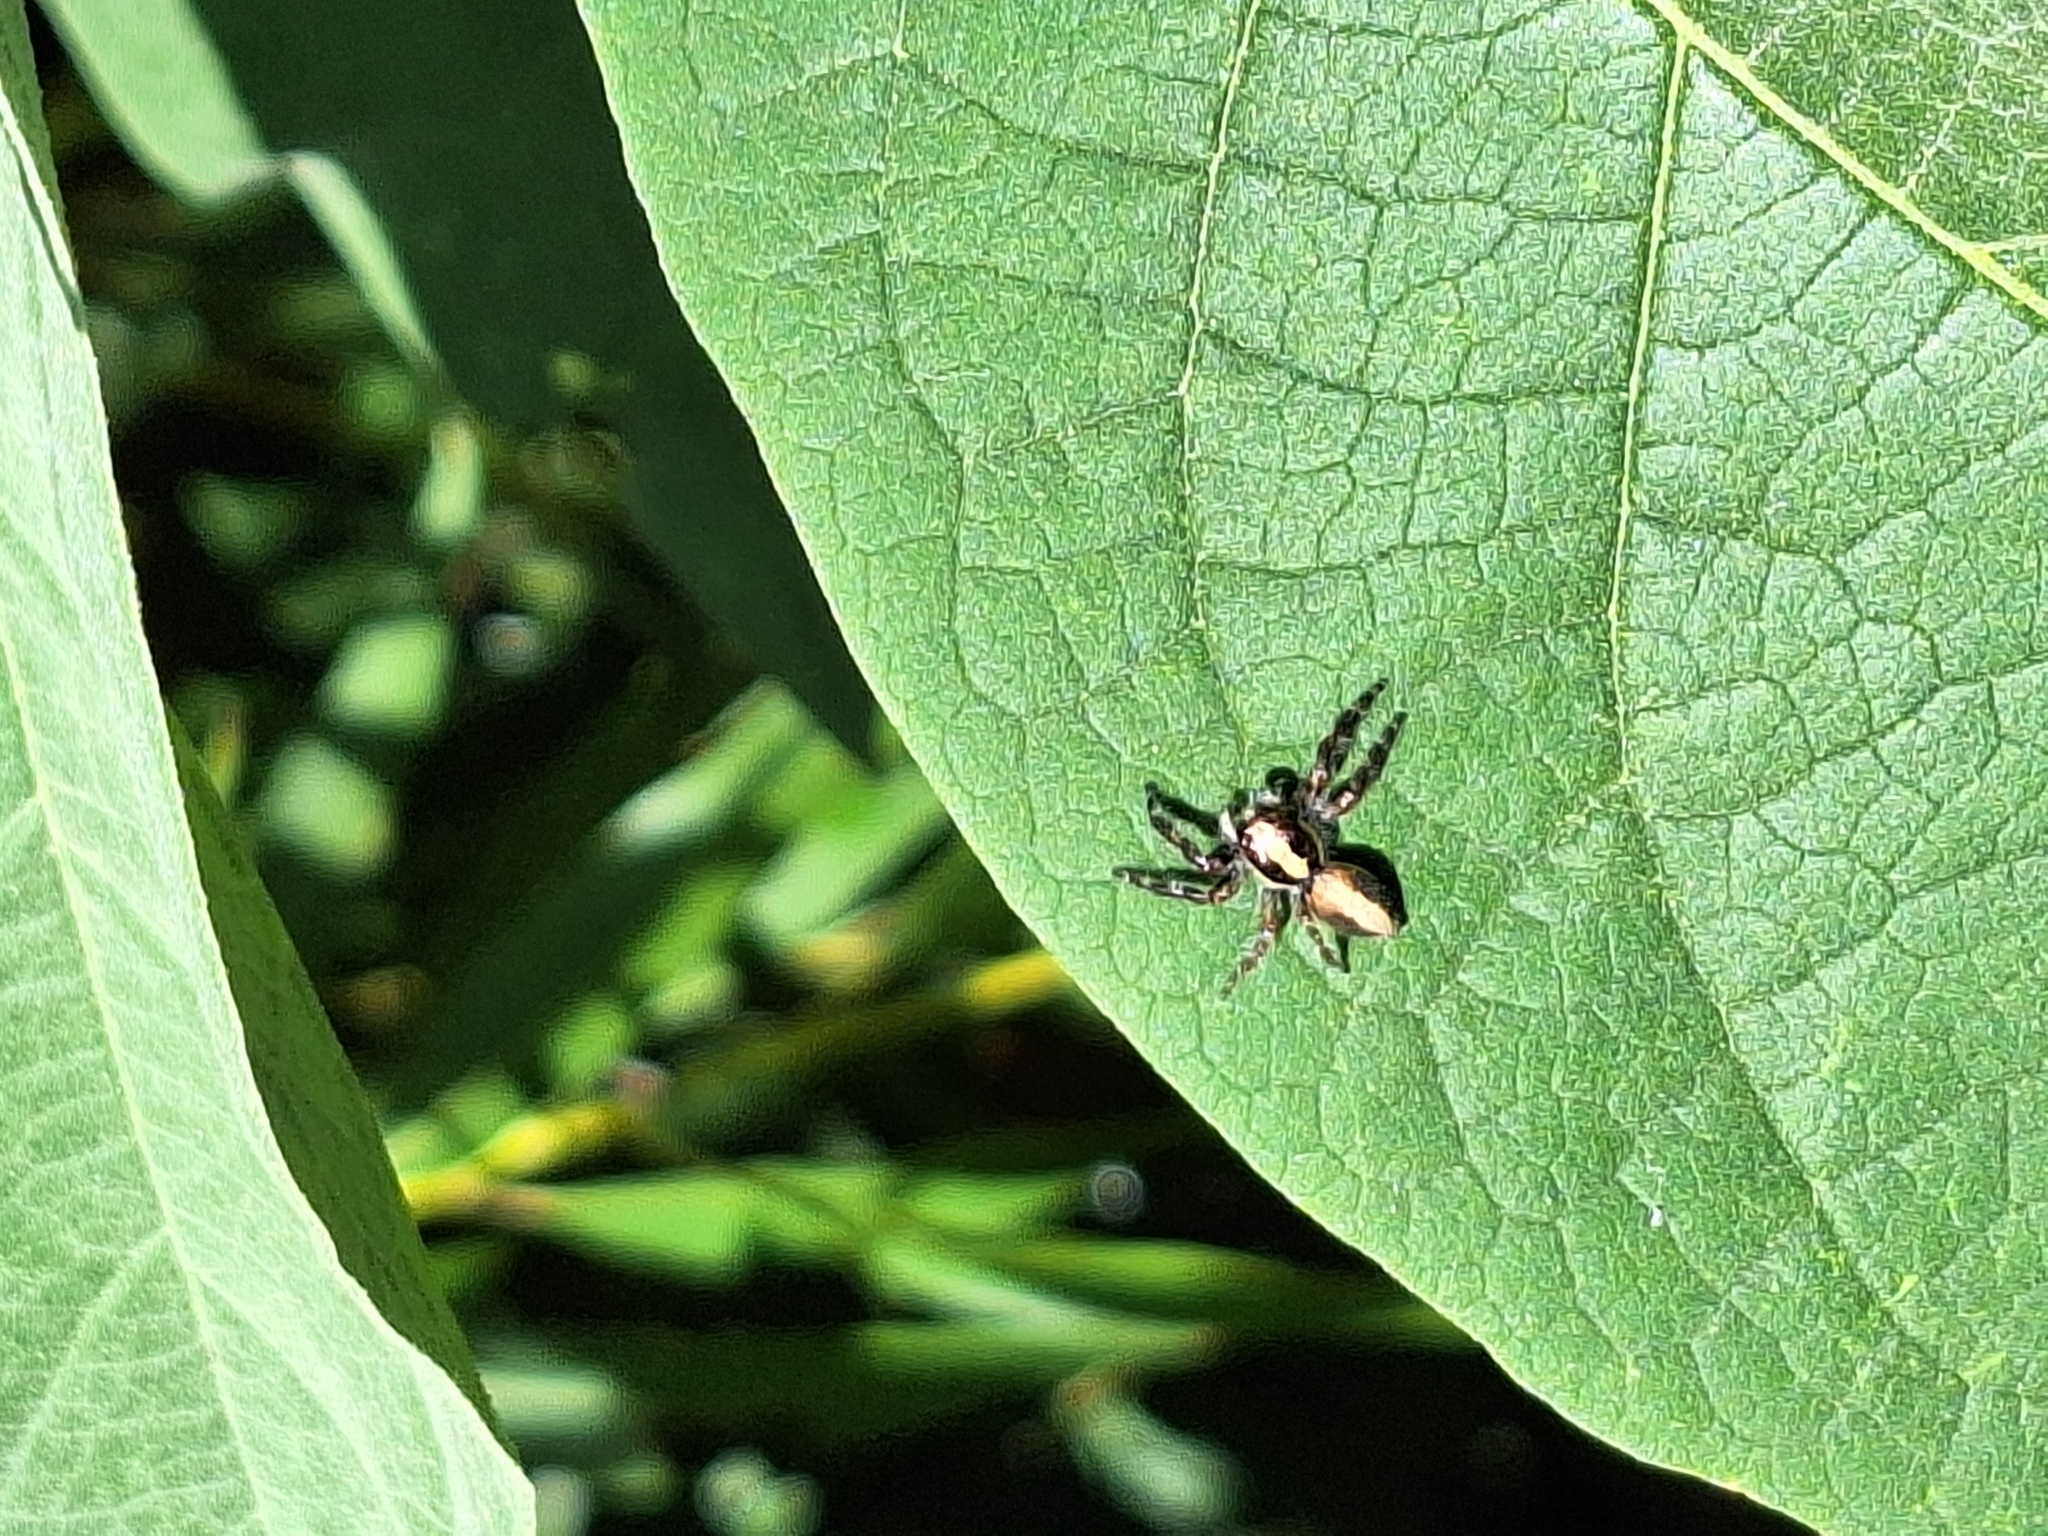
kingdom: Animalia
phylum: Arthropoda
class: Arachnida
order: Araneae
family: Salticidae
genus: Megafreya
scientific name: Megafreya sutrix
